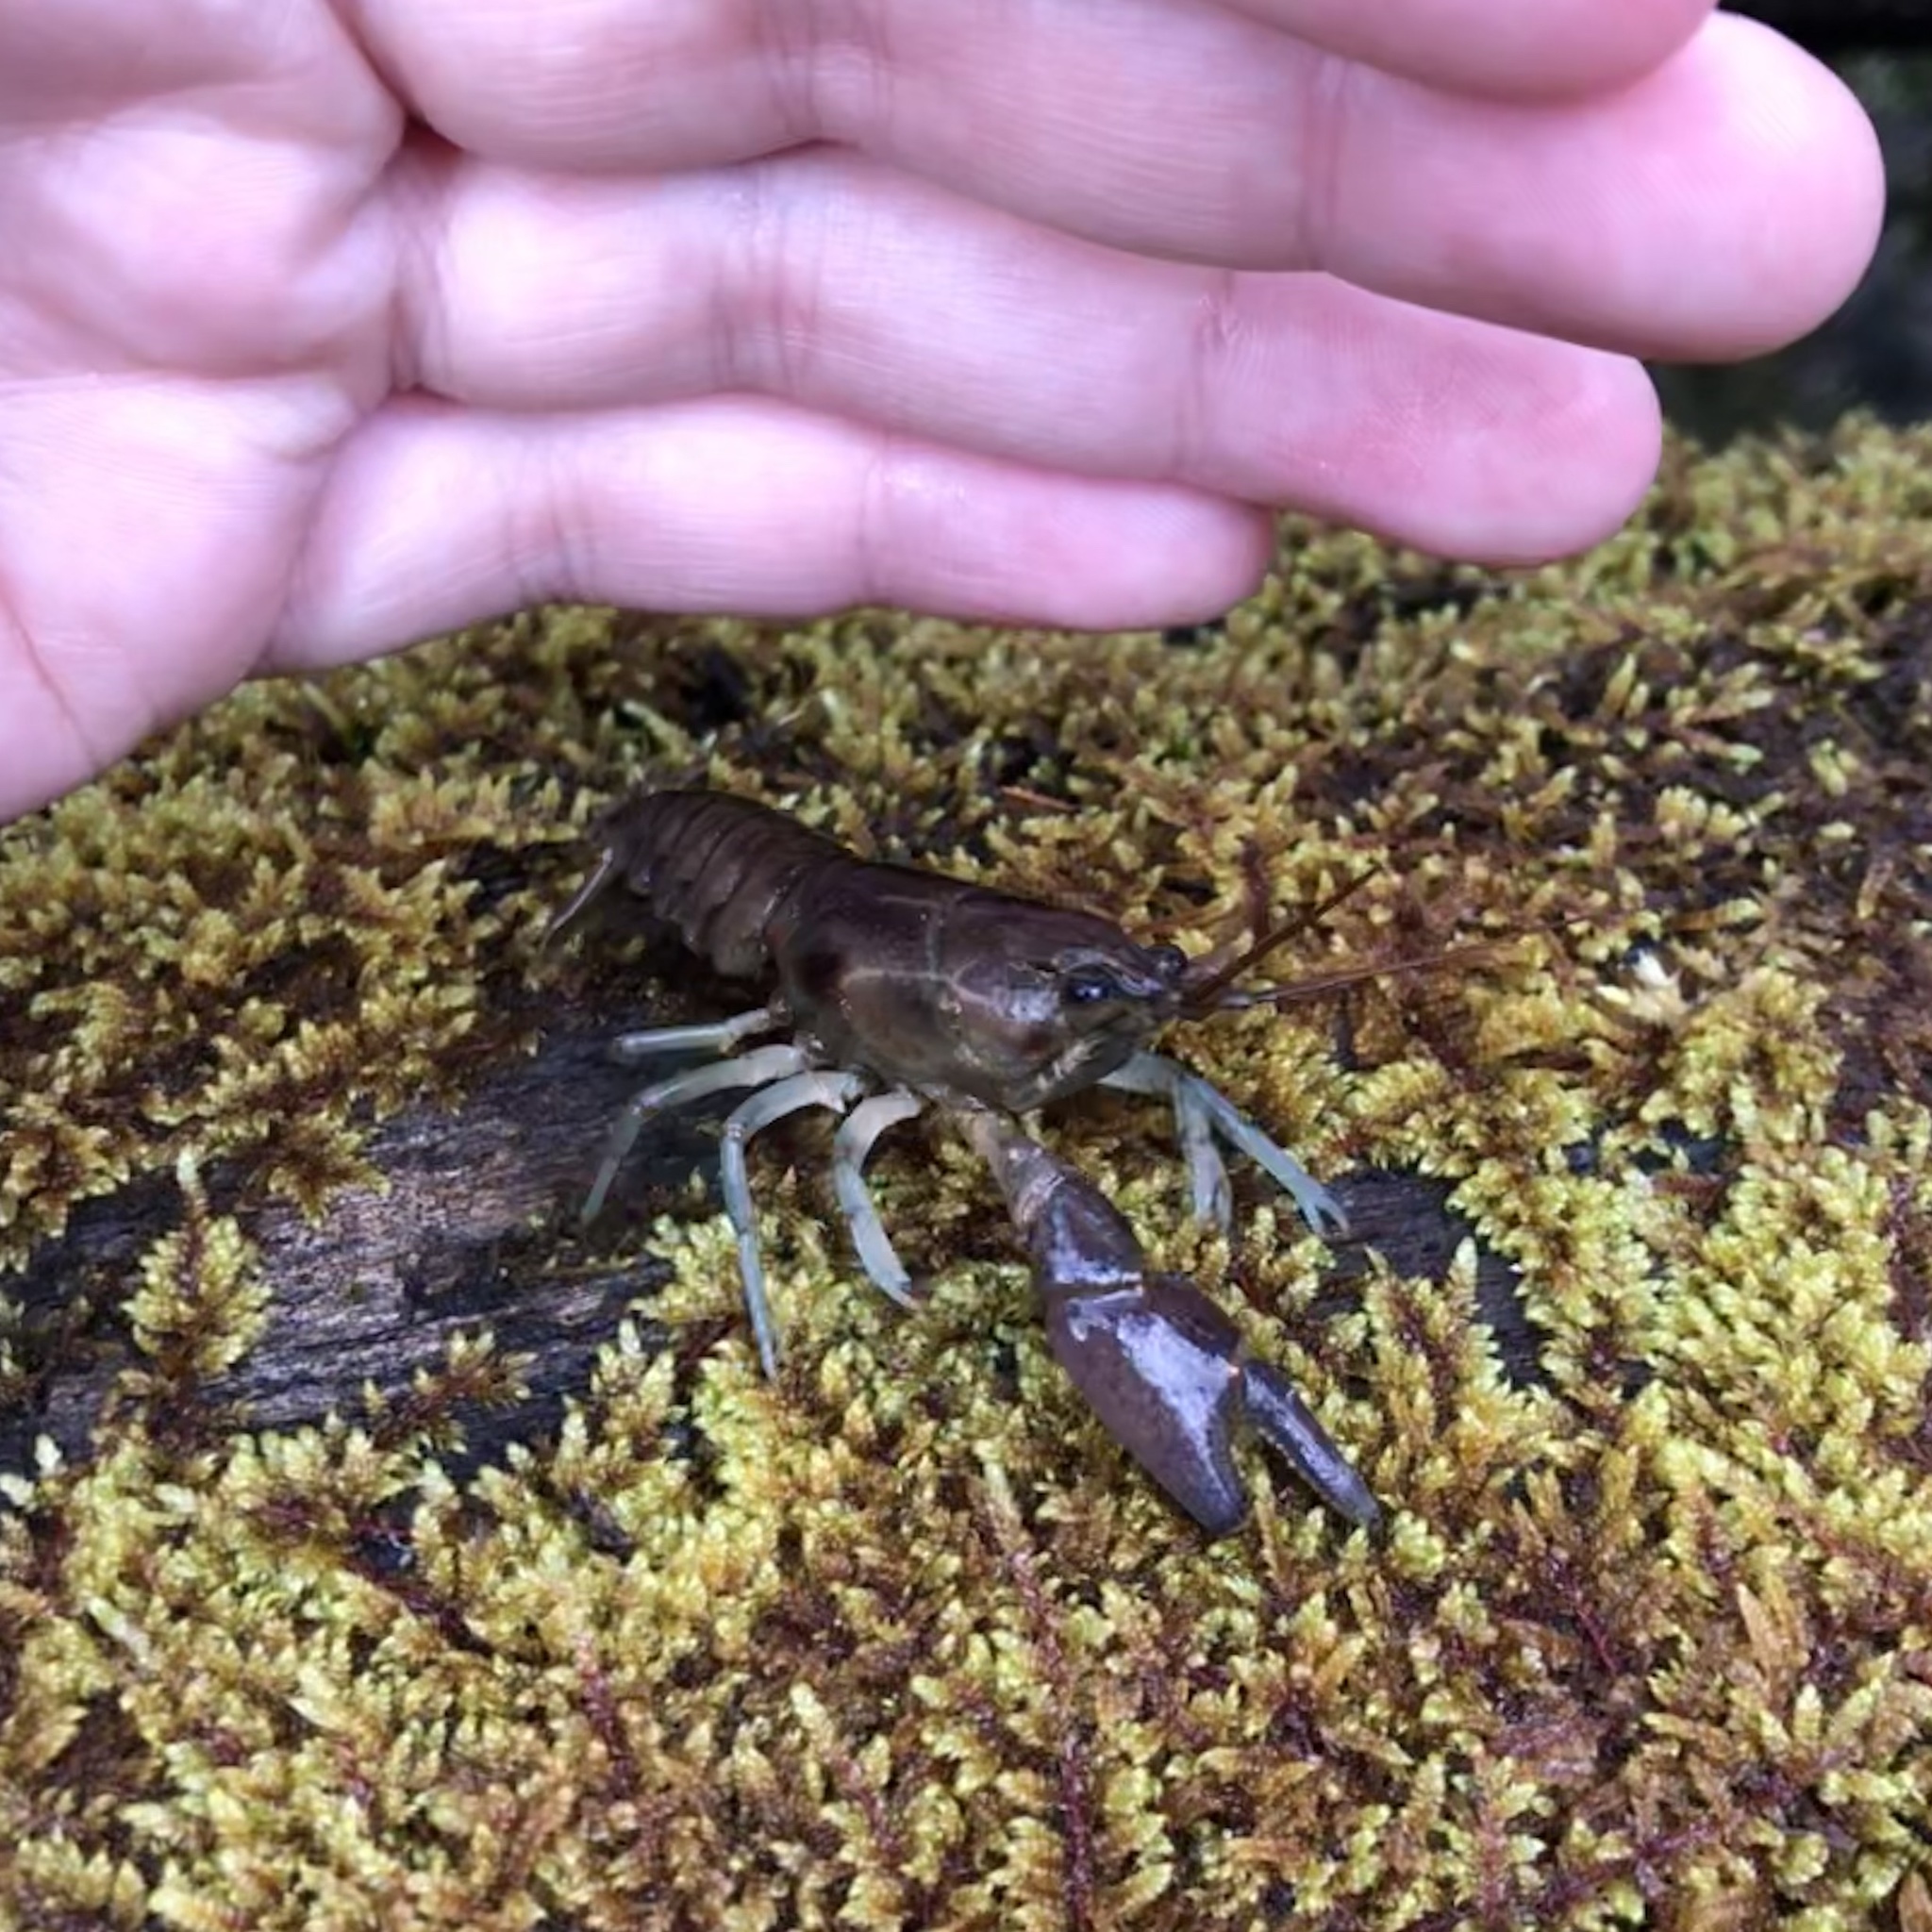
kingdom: Animalia
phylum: Arthropoda
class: Malacostraca
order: Decapoda
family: Cambaridae
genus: Faxonius
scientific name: Faxonius rusticus
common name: Rusty crayfish
